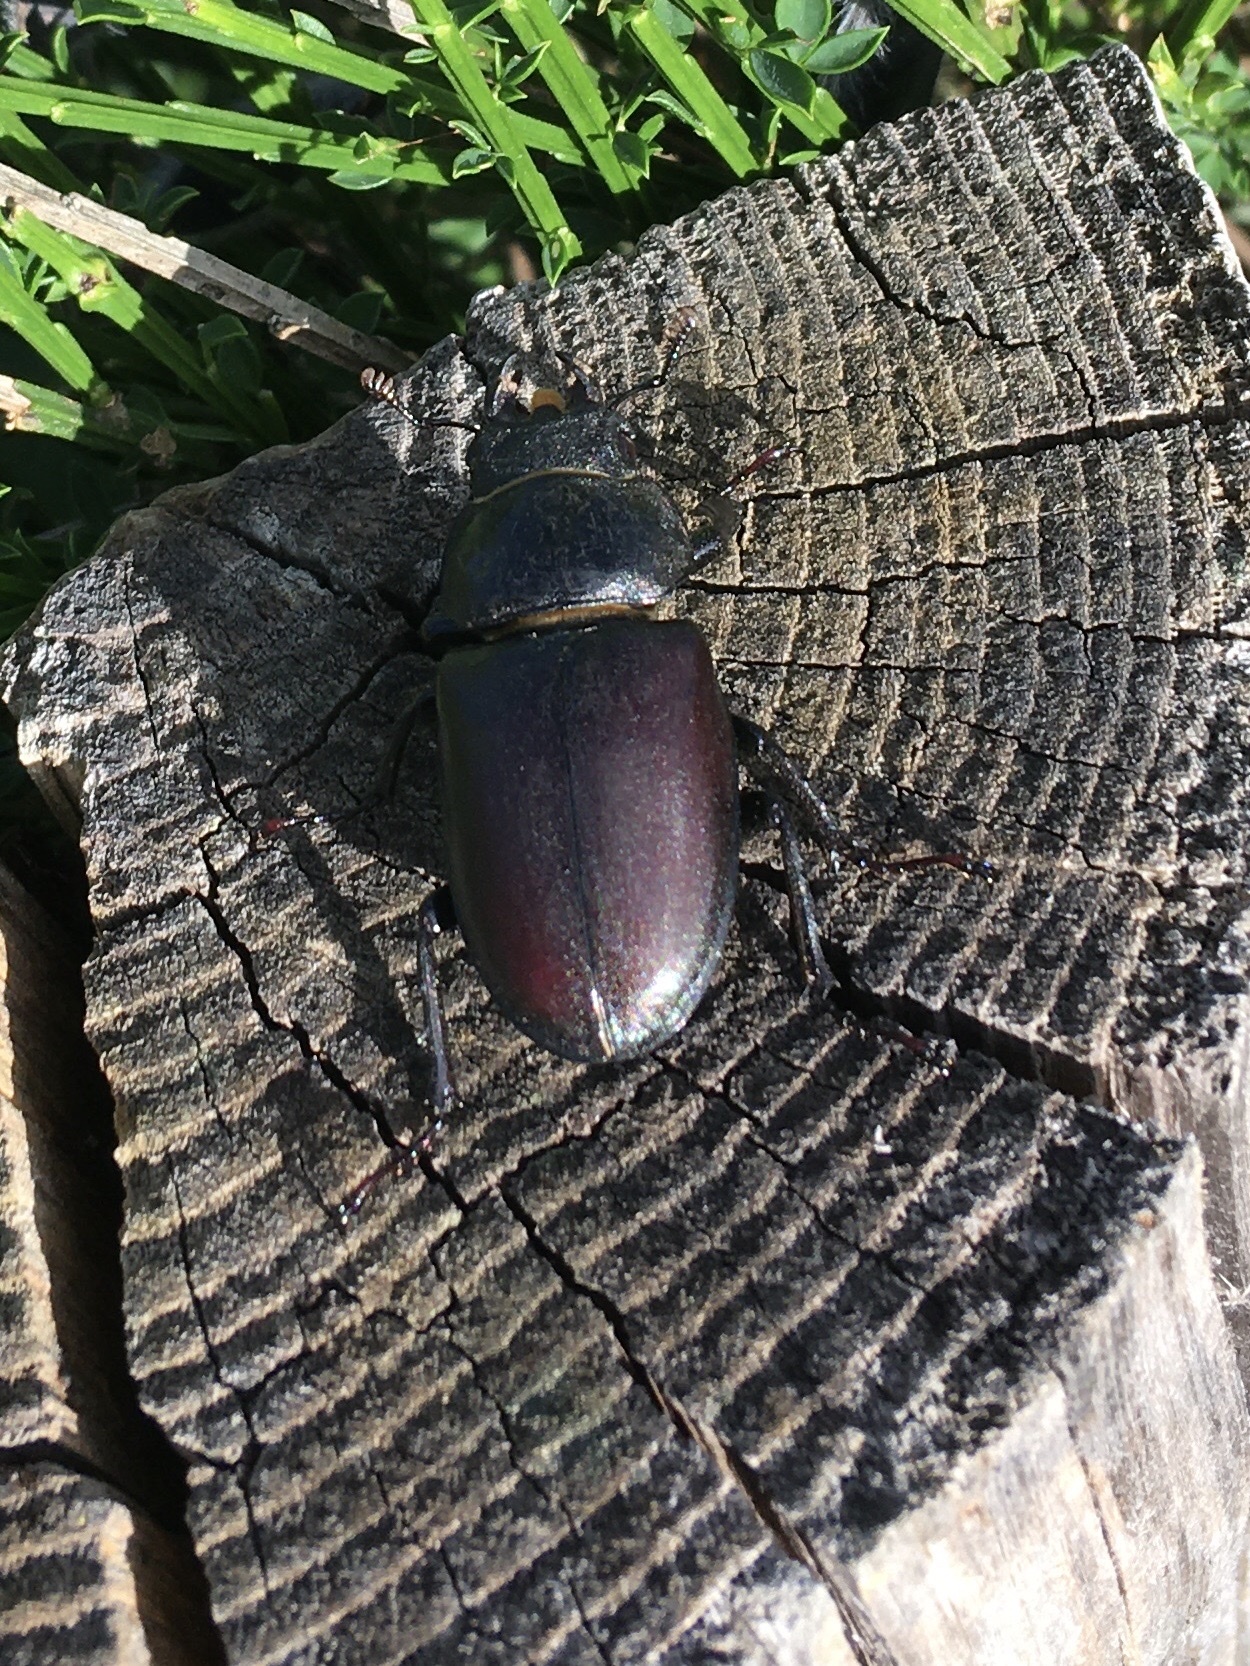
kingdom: Animalia
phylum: Arthropoda
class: Insecta
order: Coleoptera
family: Lucanidae
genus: Lucanus
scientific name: Lucanus cervus
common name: Stag beetle
